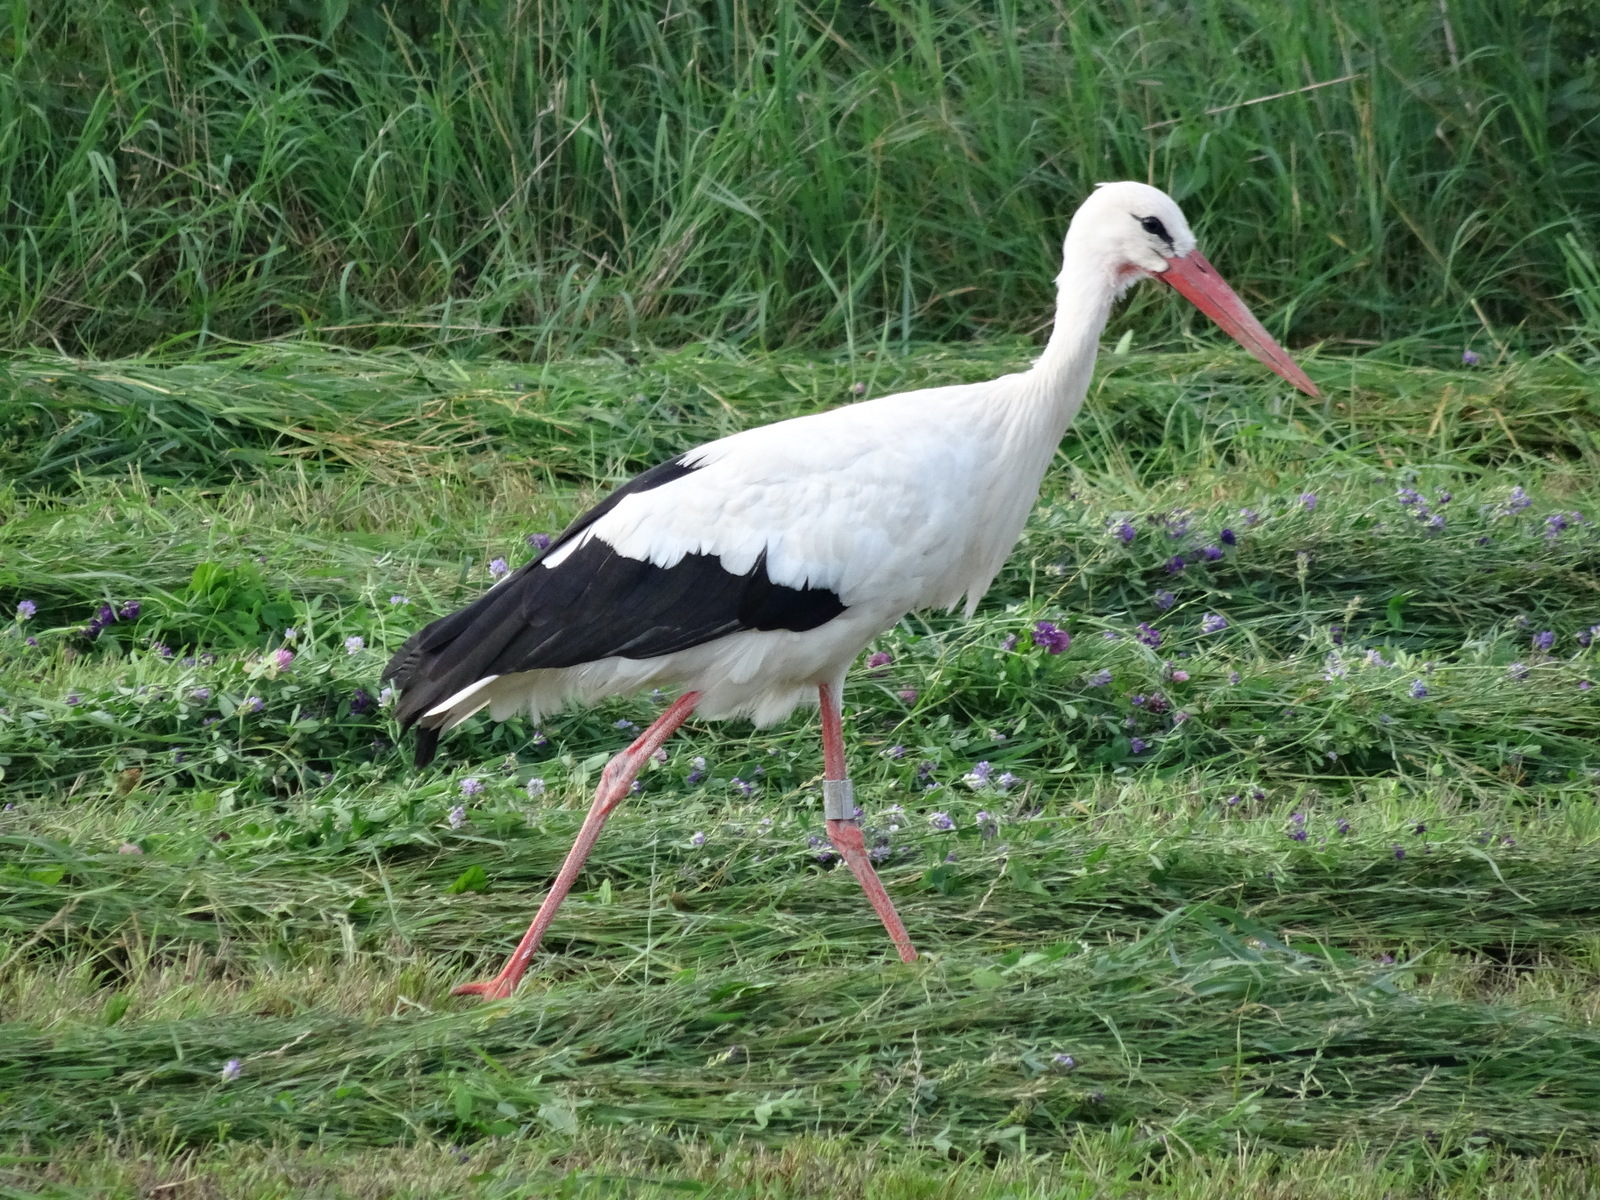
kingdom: Animalia
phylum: Chordata
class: Aves
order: Ciconiiformes
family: Ciconiidae
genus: Ciconia
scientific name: Ciconia ciconia
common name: White stork
